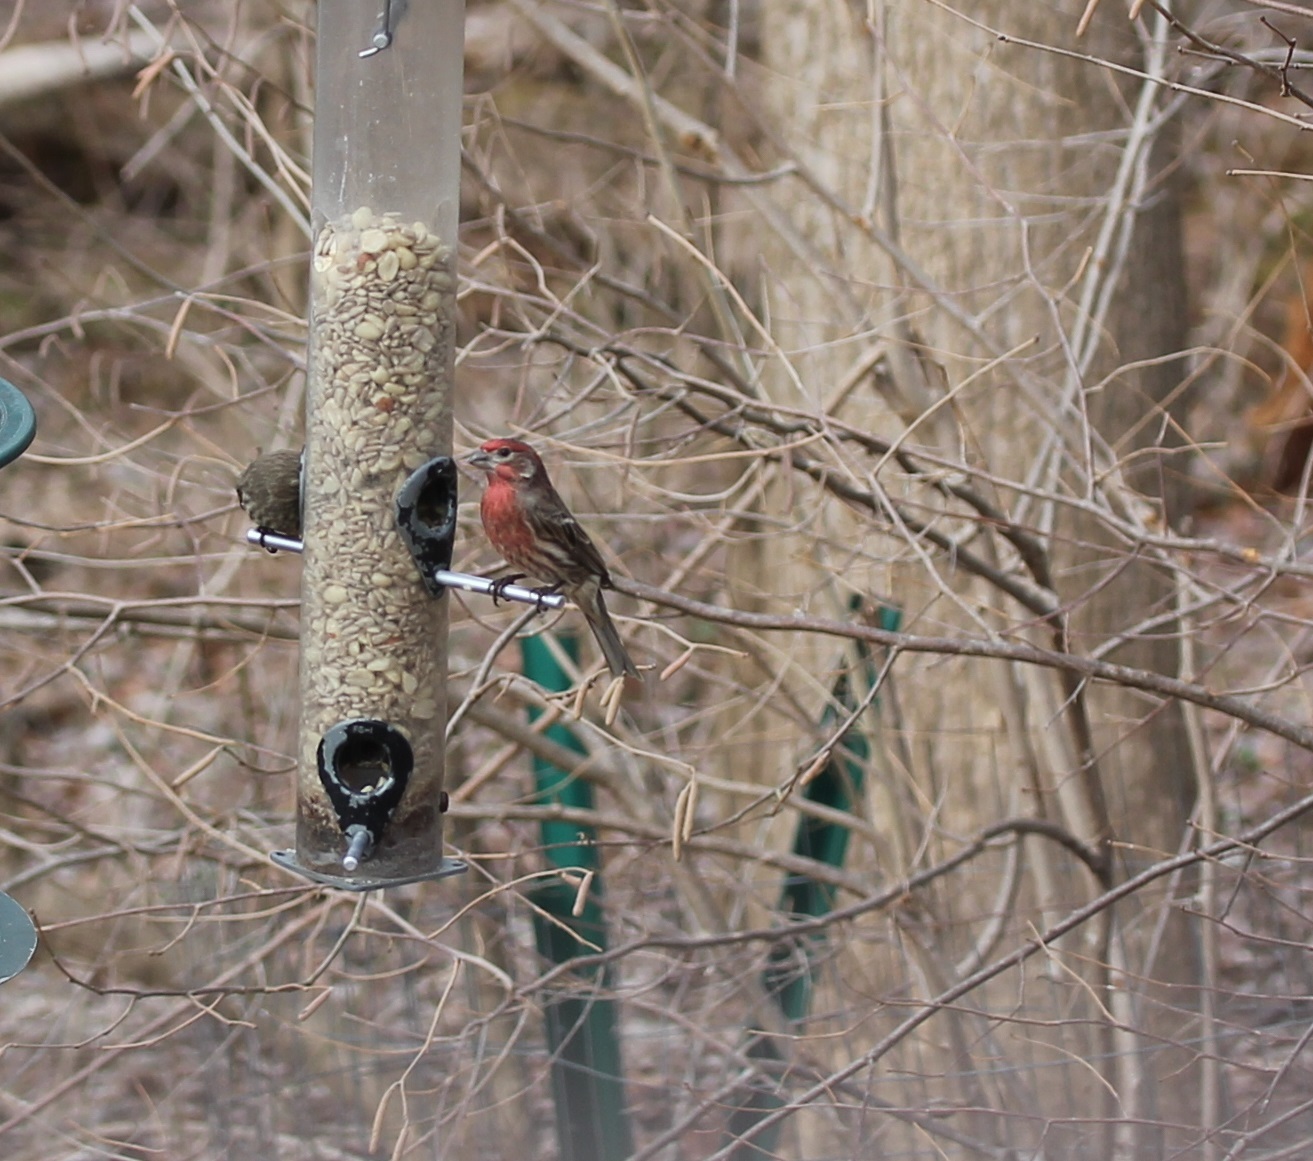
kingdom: Animalia
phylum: Chordata
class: Aves
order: Passeriformes
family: Fringillidae
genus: Haemorhous
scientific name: Haemorhous mexicanus
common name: House finch
